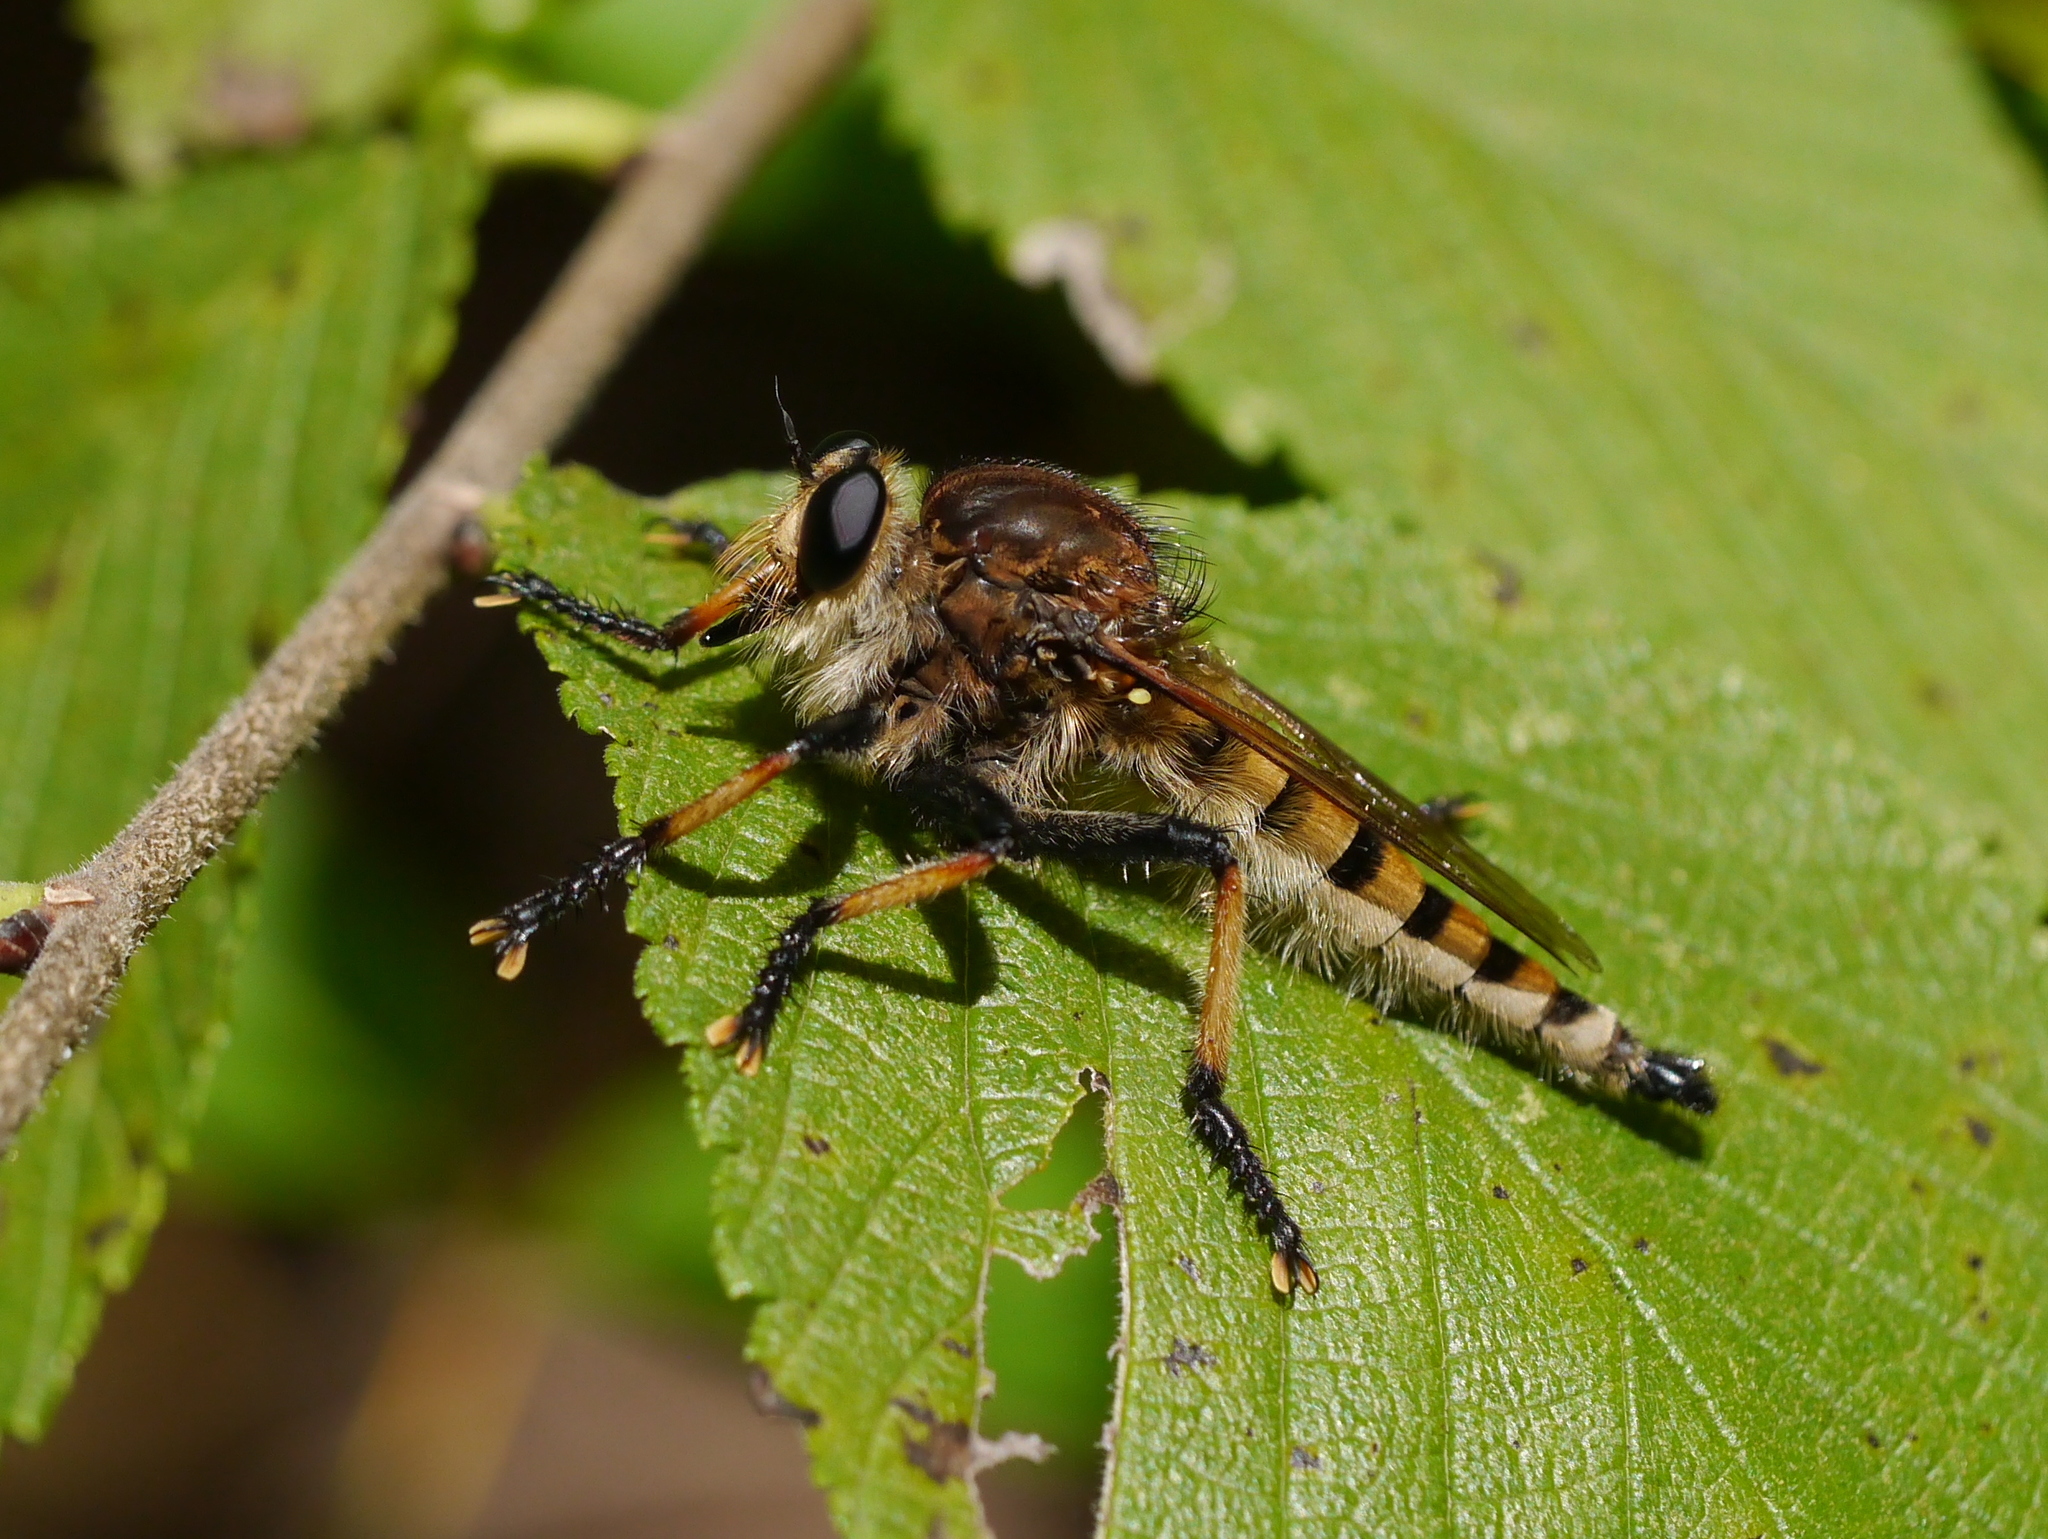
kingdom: Animalia
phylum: Arthropoda
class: Insecta
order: Diptera
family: Asilidae
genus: Promachus
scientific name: Promachus rufipes
